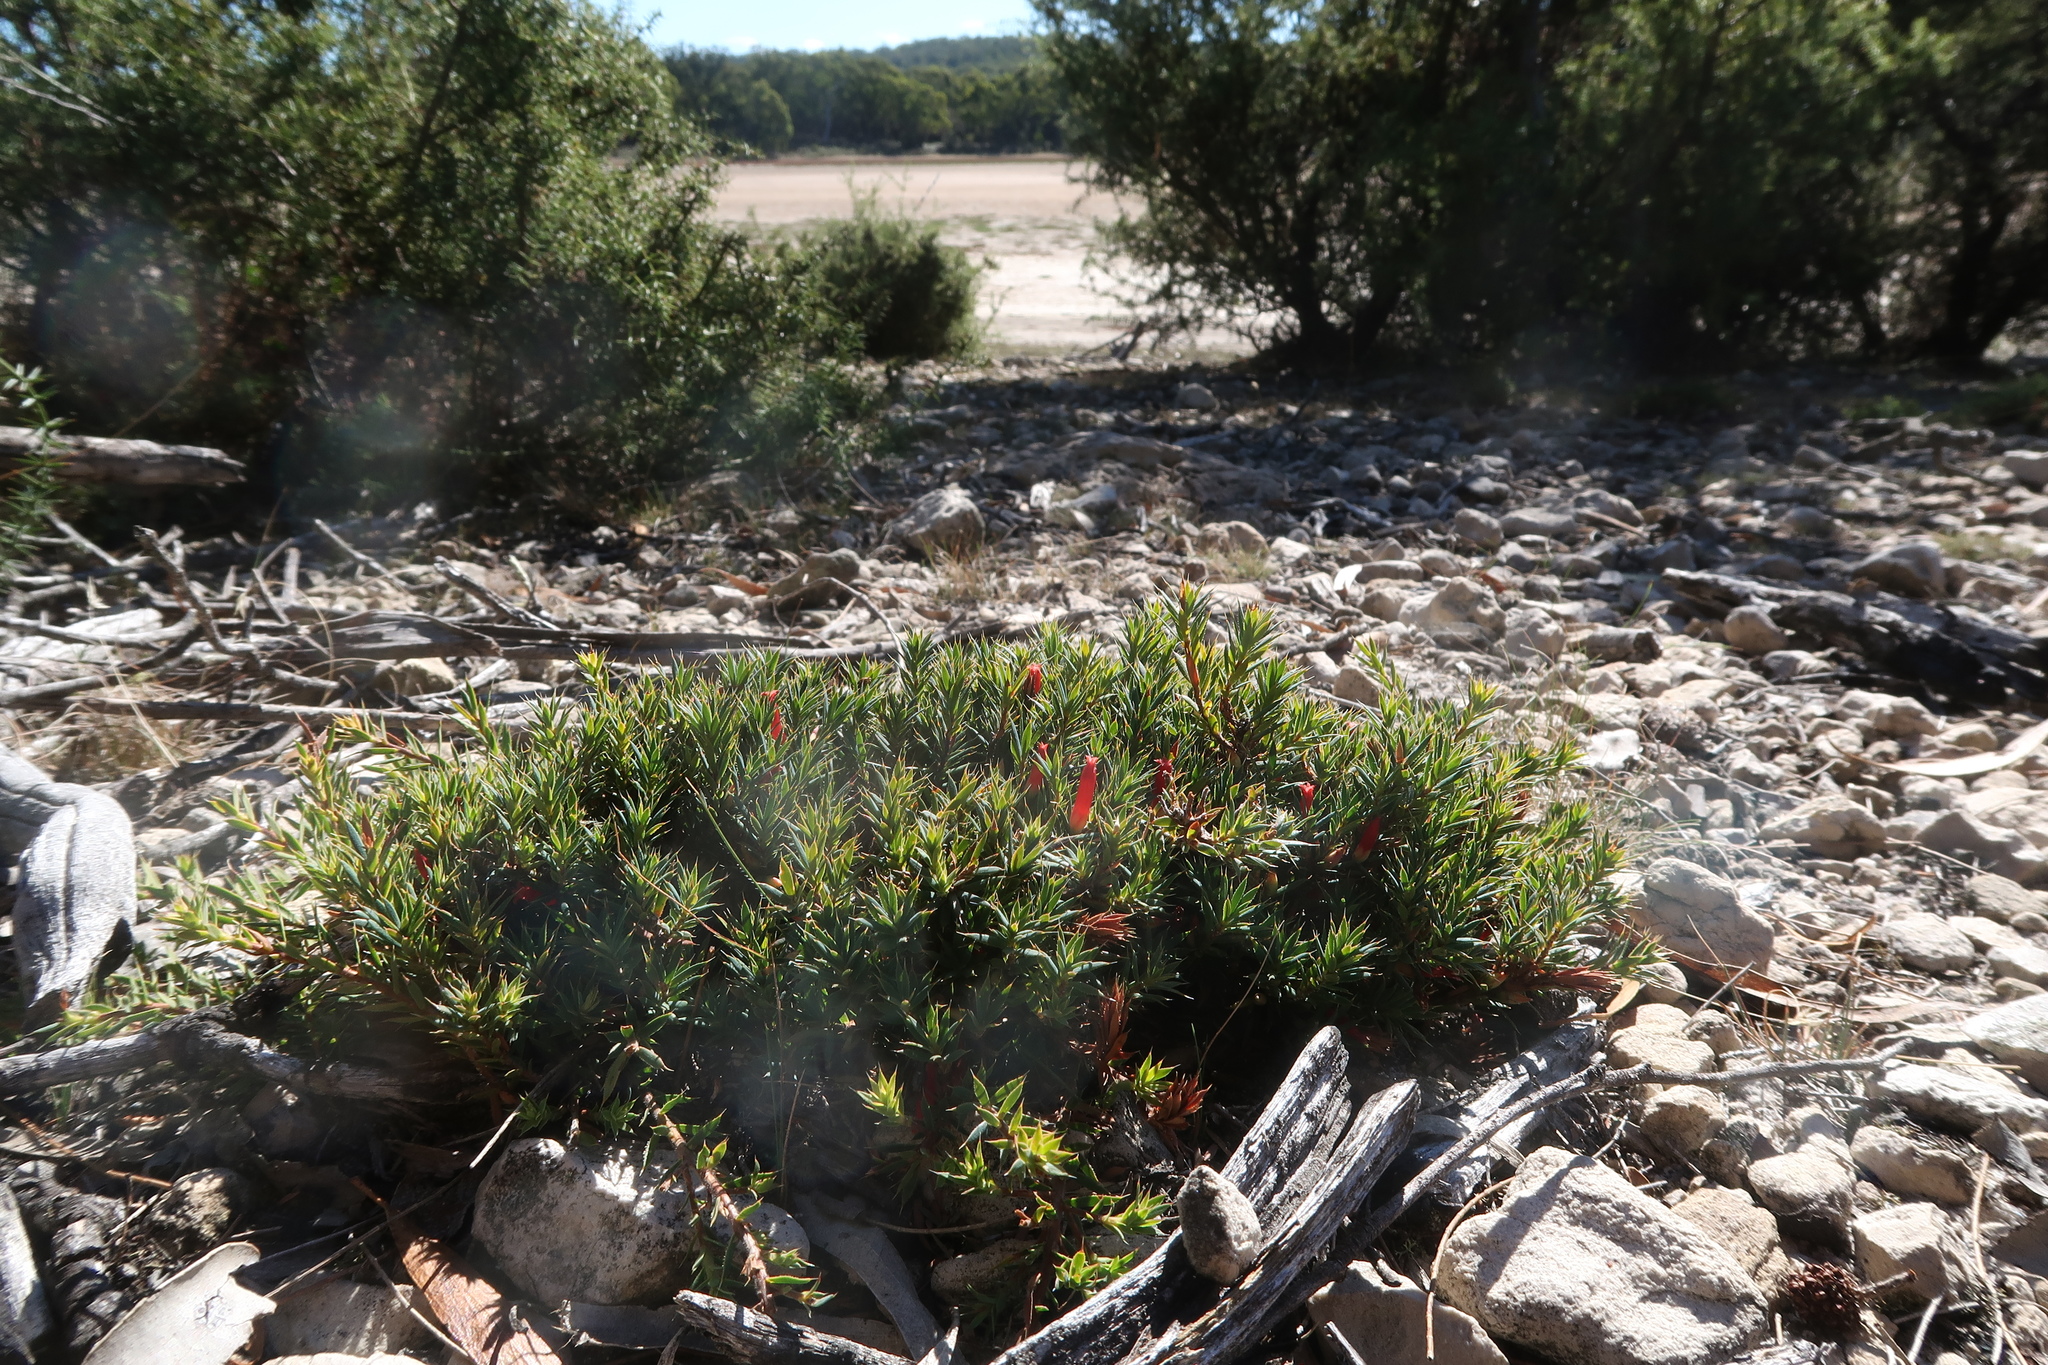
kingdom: Plantae
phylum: Tracheophyta
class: Magnoliopsida
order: Ericales
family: Ericaceae
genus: Styphelia
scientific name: Styphelia humifusa
